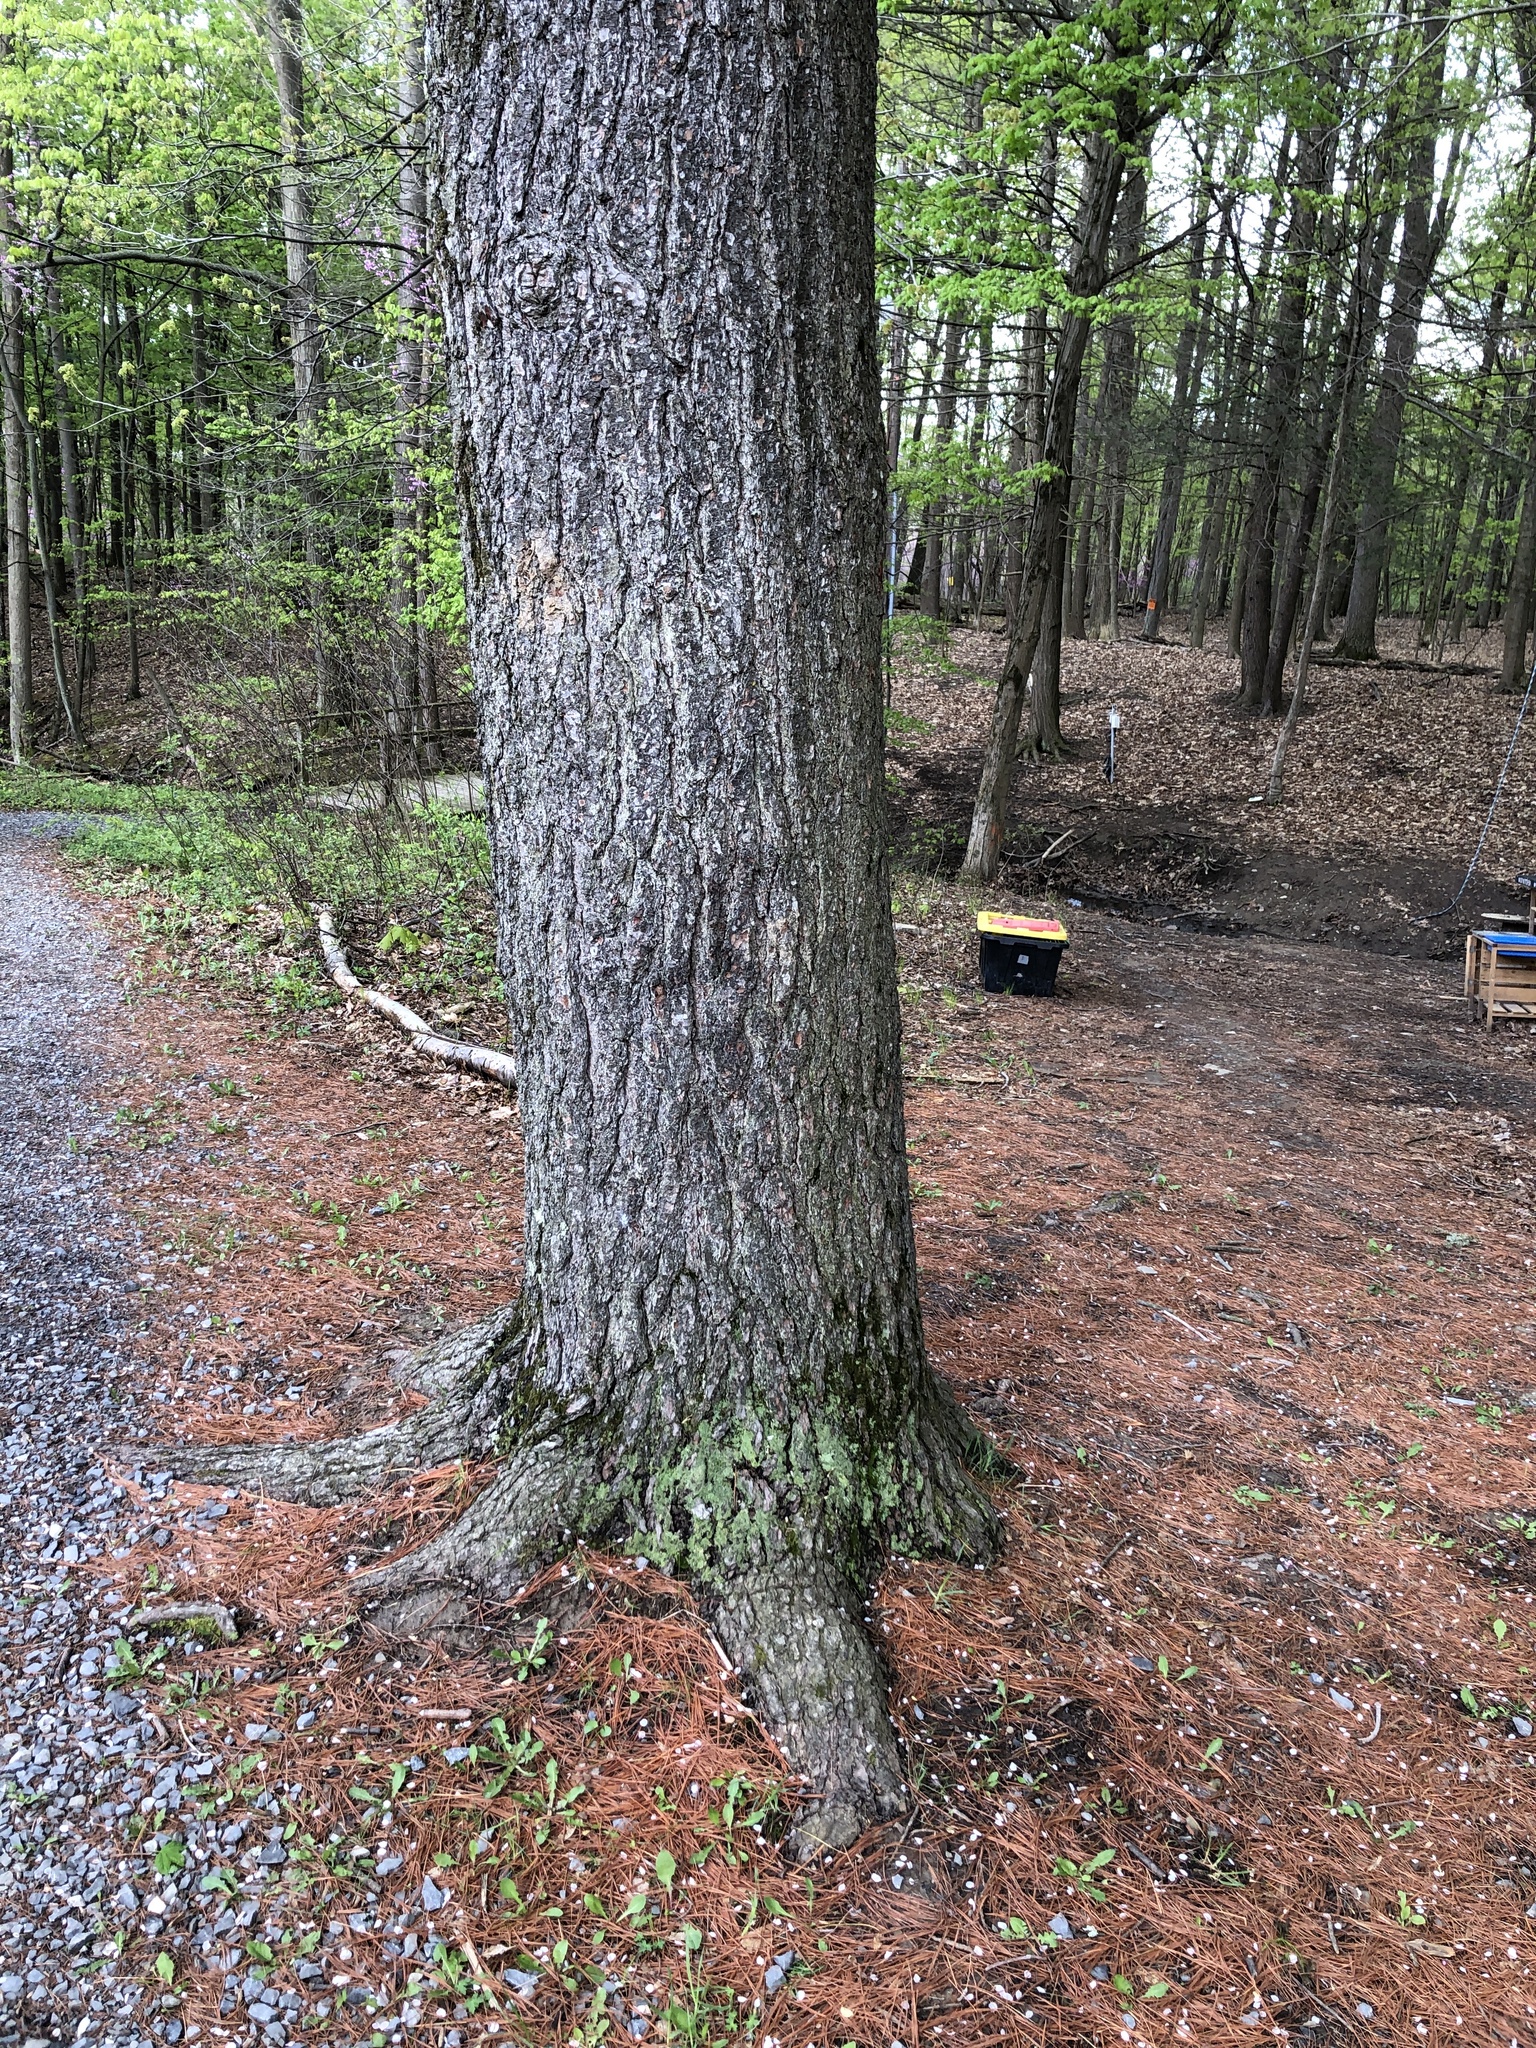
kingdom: Plantae
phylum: Tracheophyta
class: Pinopsida
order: Pinales
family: Pinaceae
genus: Pinus
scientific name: Pinus strobus
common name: Weymouth pine
